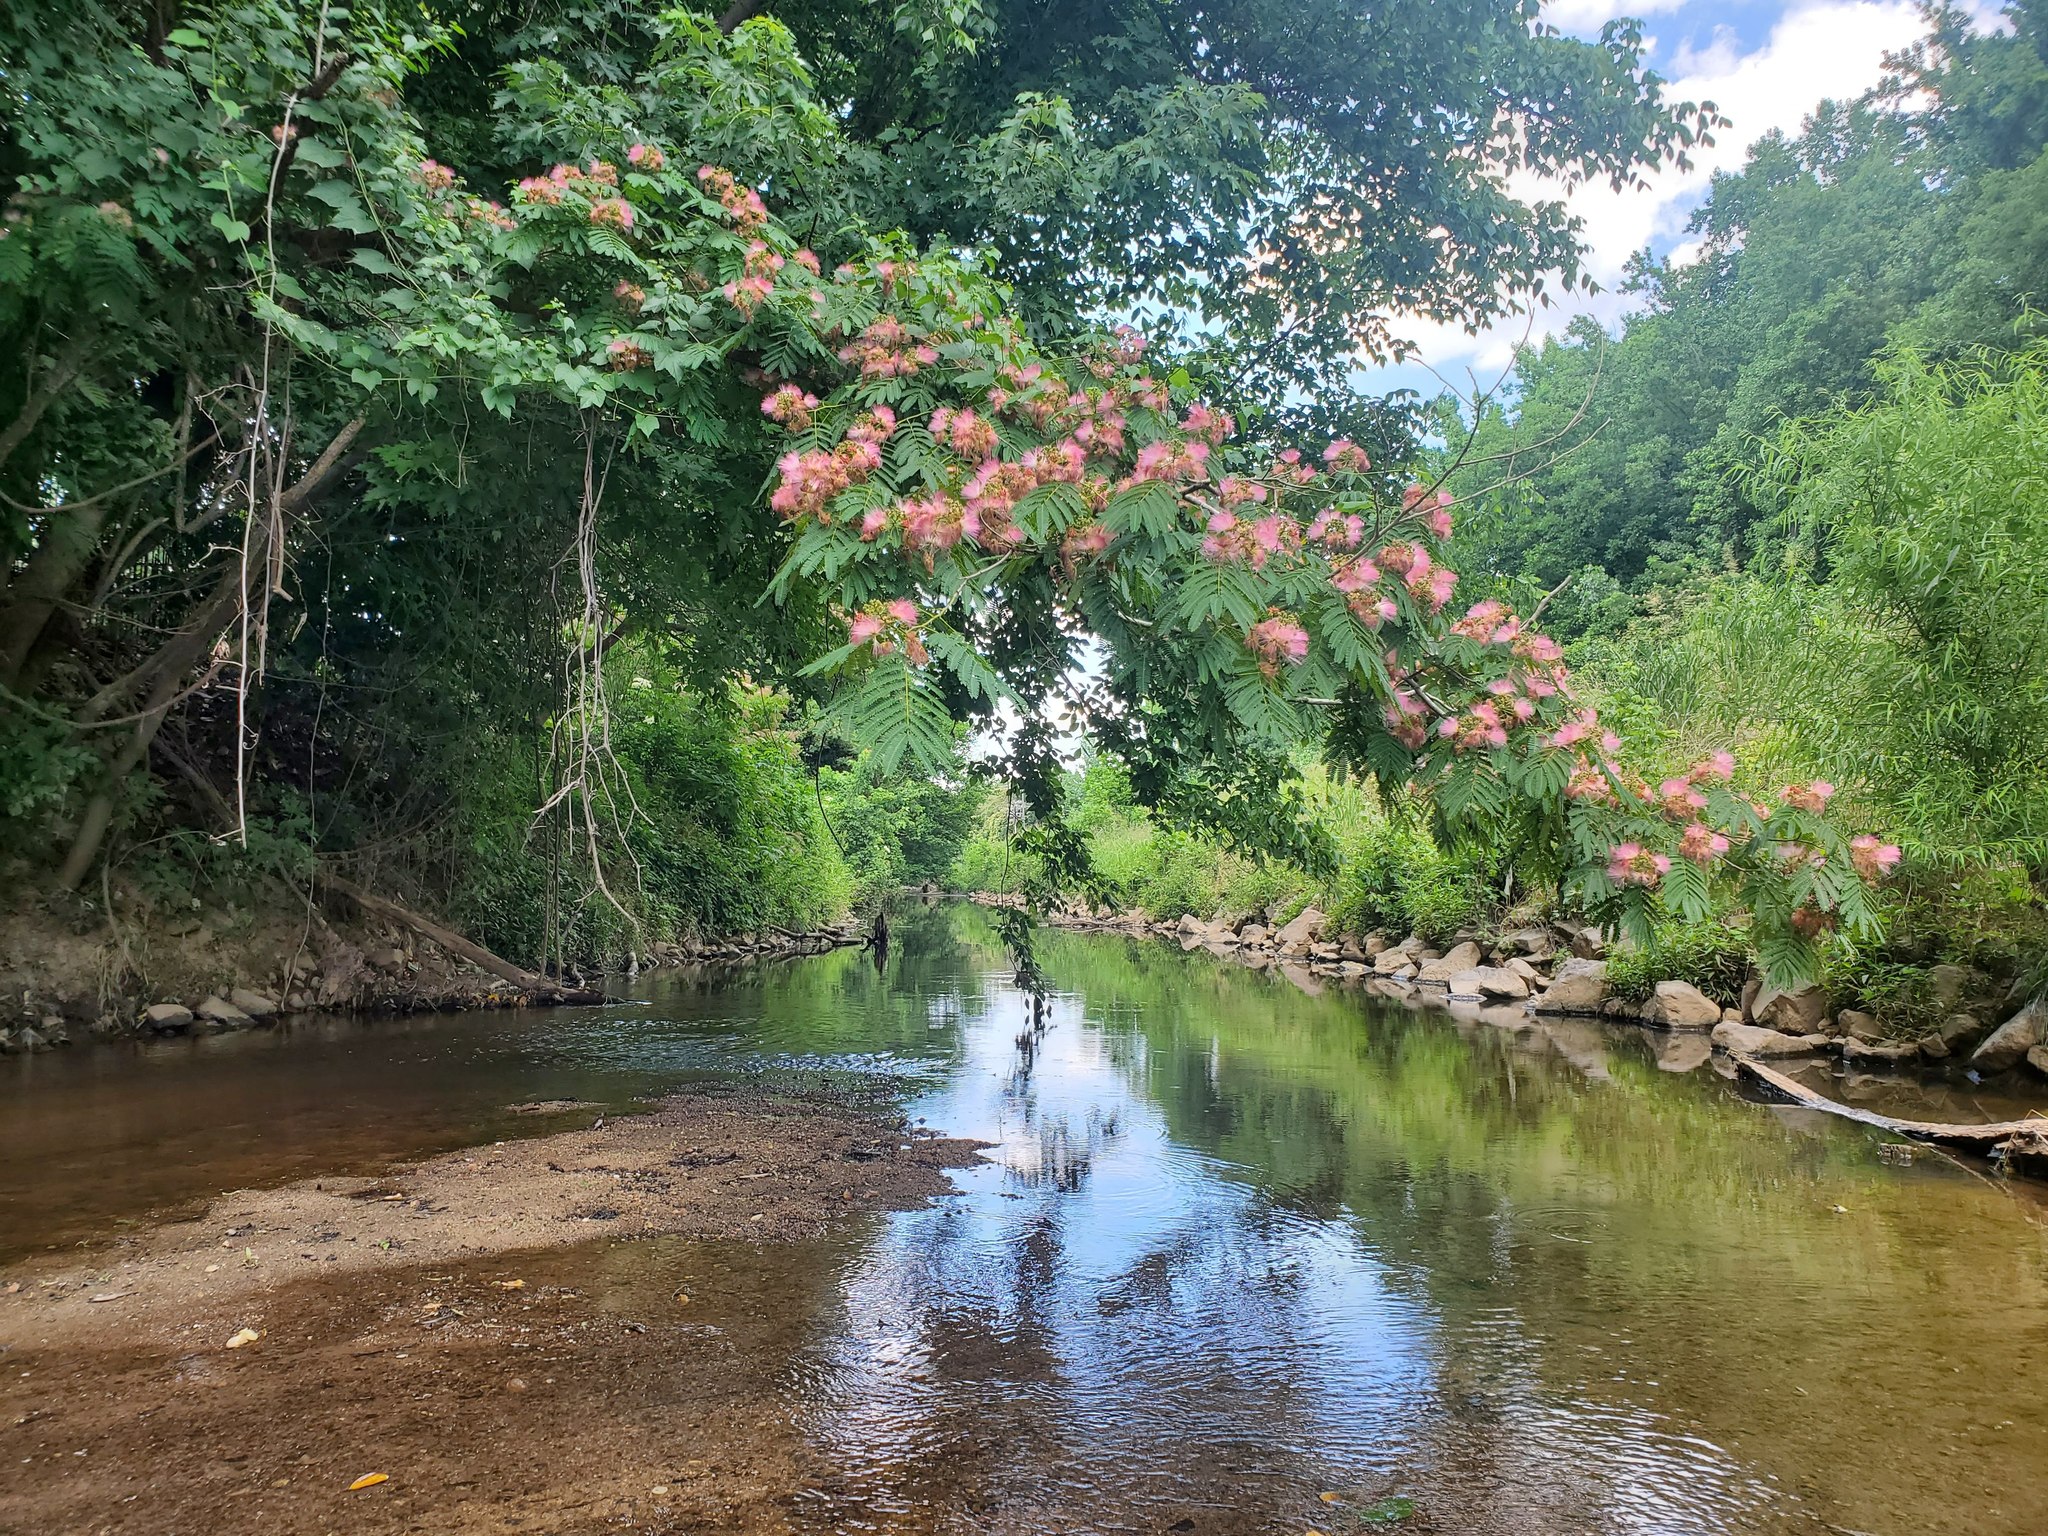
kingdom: Plantae
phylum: Tracheophyta
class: Magnoliopsida
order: Fabales
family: Fabaceae
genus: Albizia
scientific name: Albizia julibrissin
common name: Silktree
